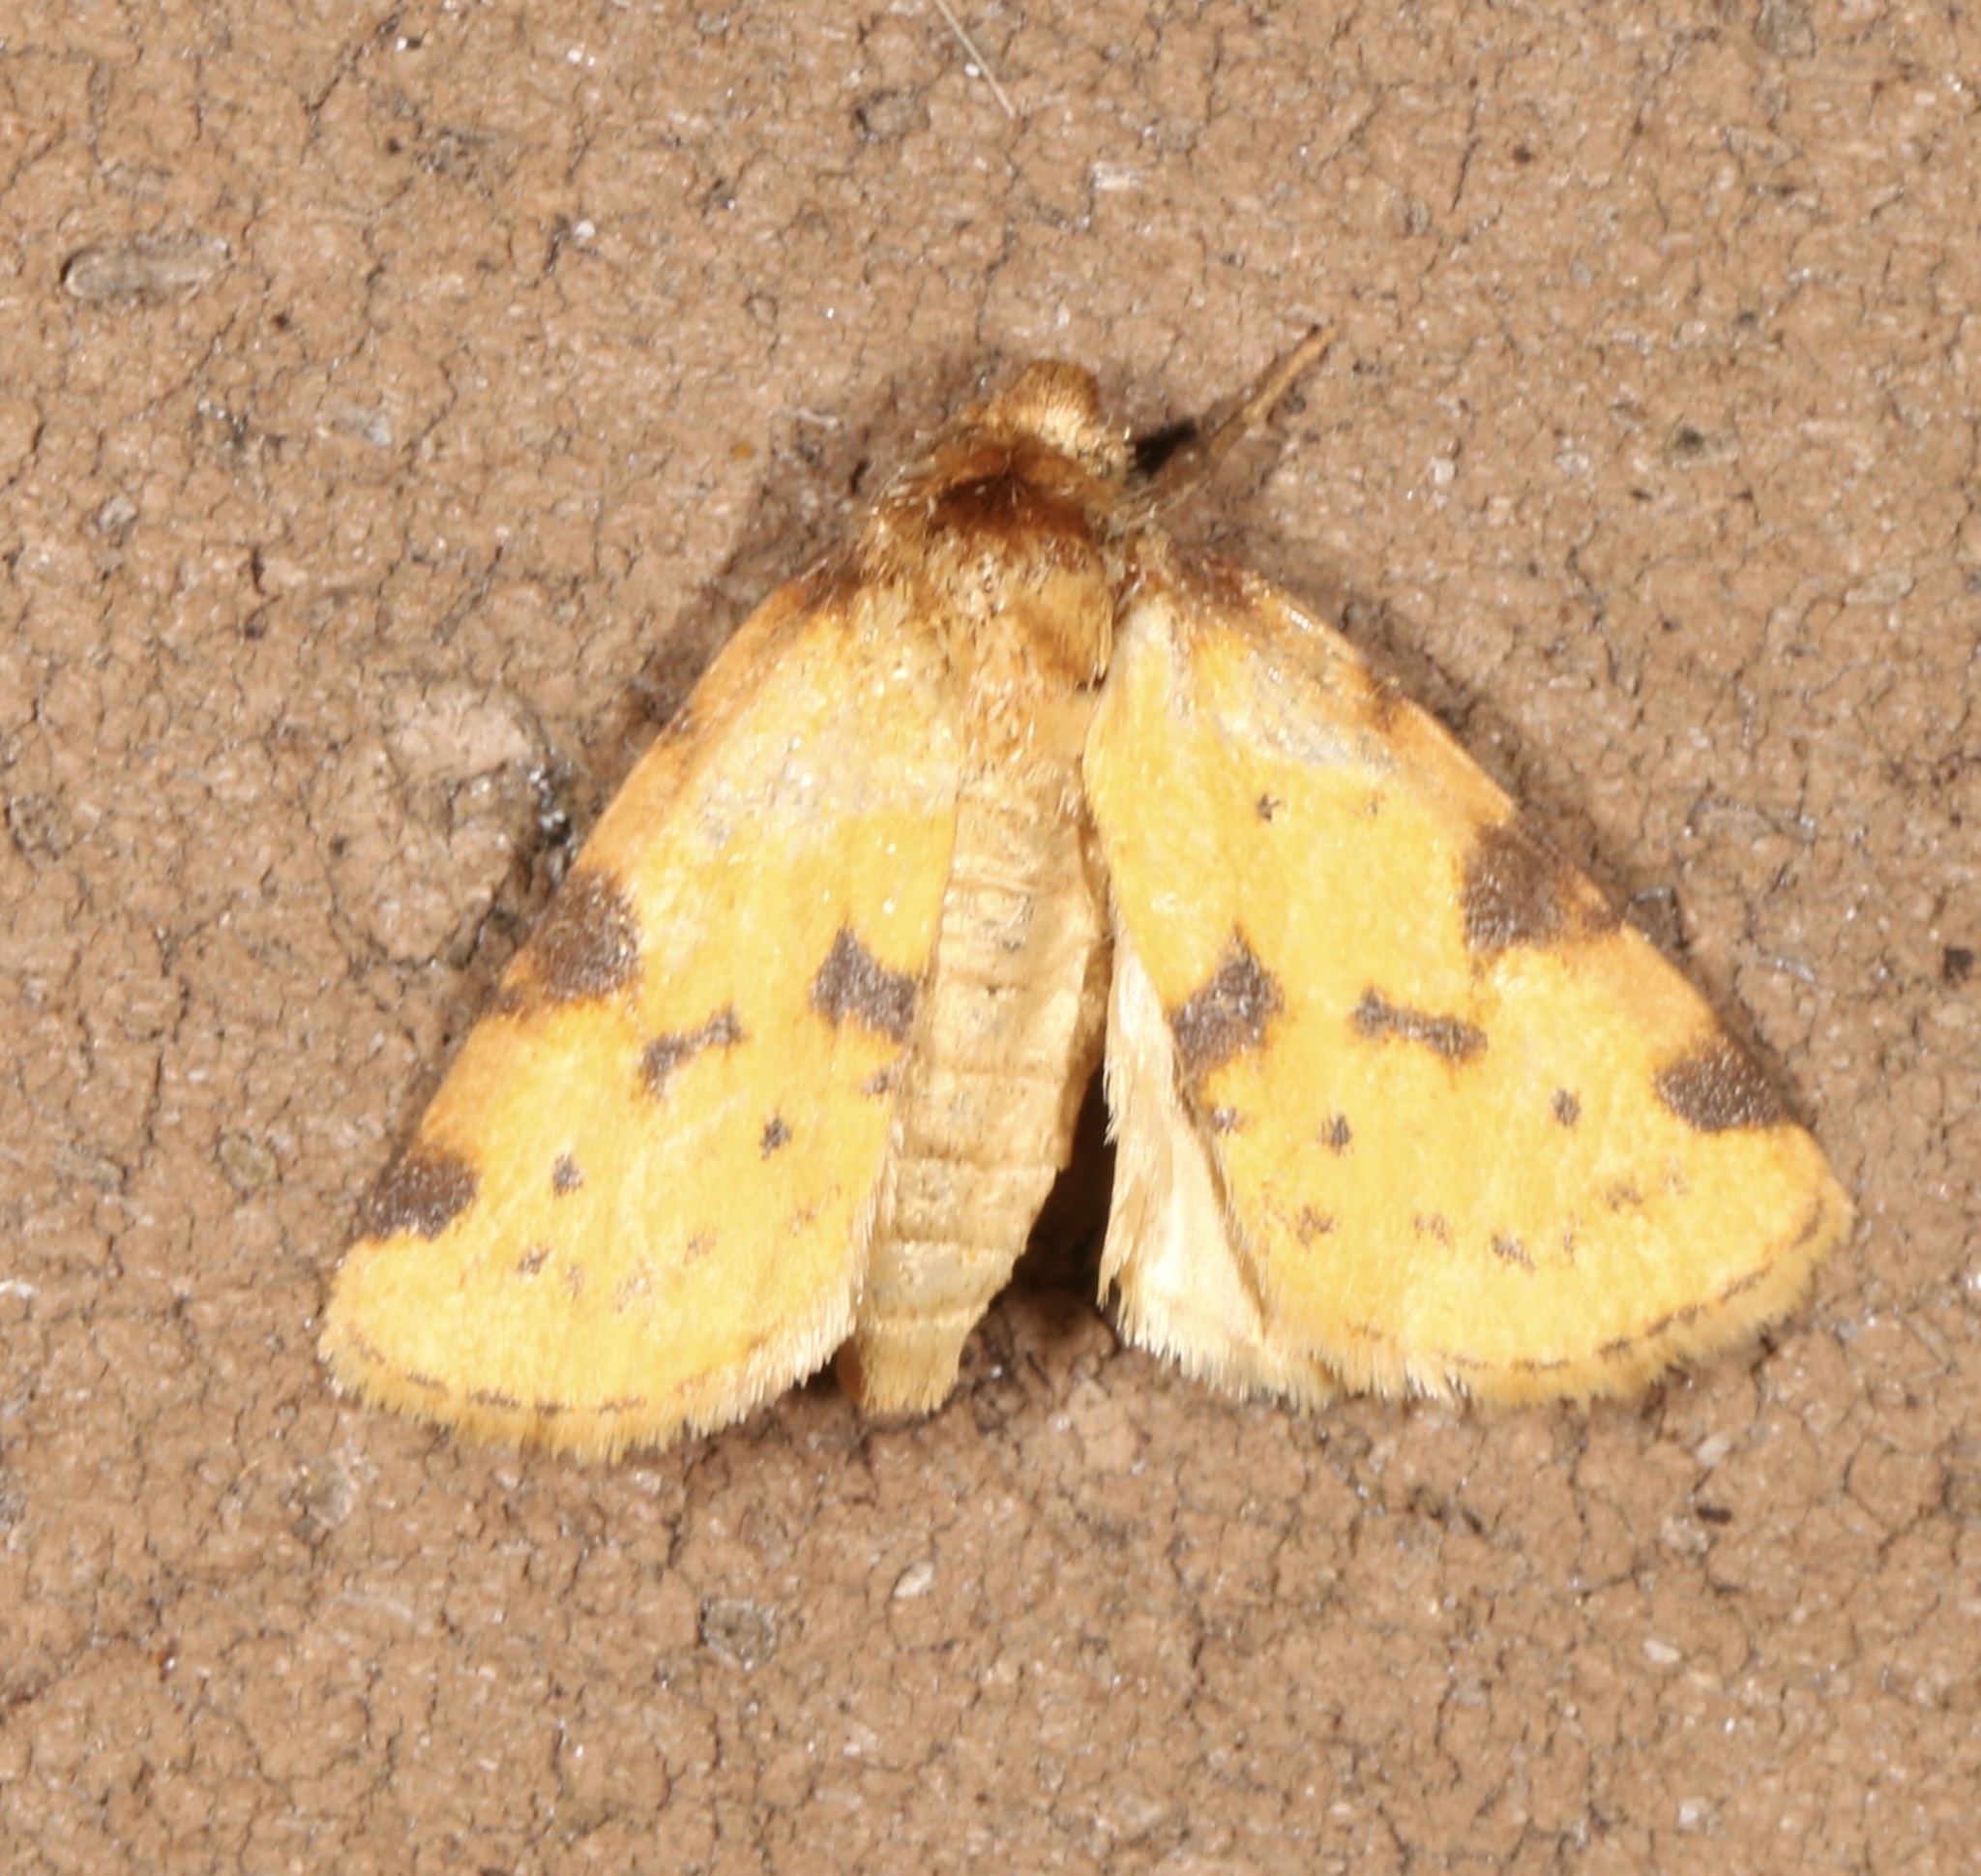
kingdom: Animalia
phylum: Arthropoda
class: Insecta
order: Lepidoptera
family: Noctuidae
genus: Azenia
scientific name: Azenia obtusa
